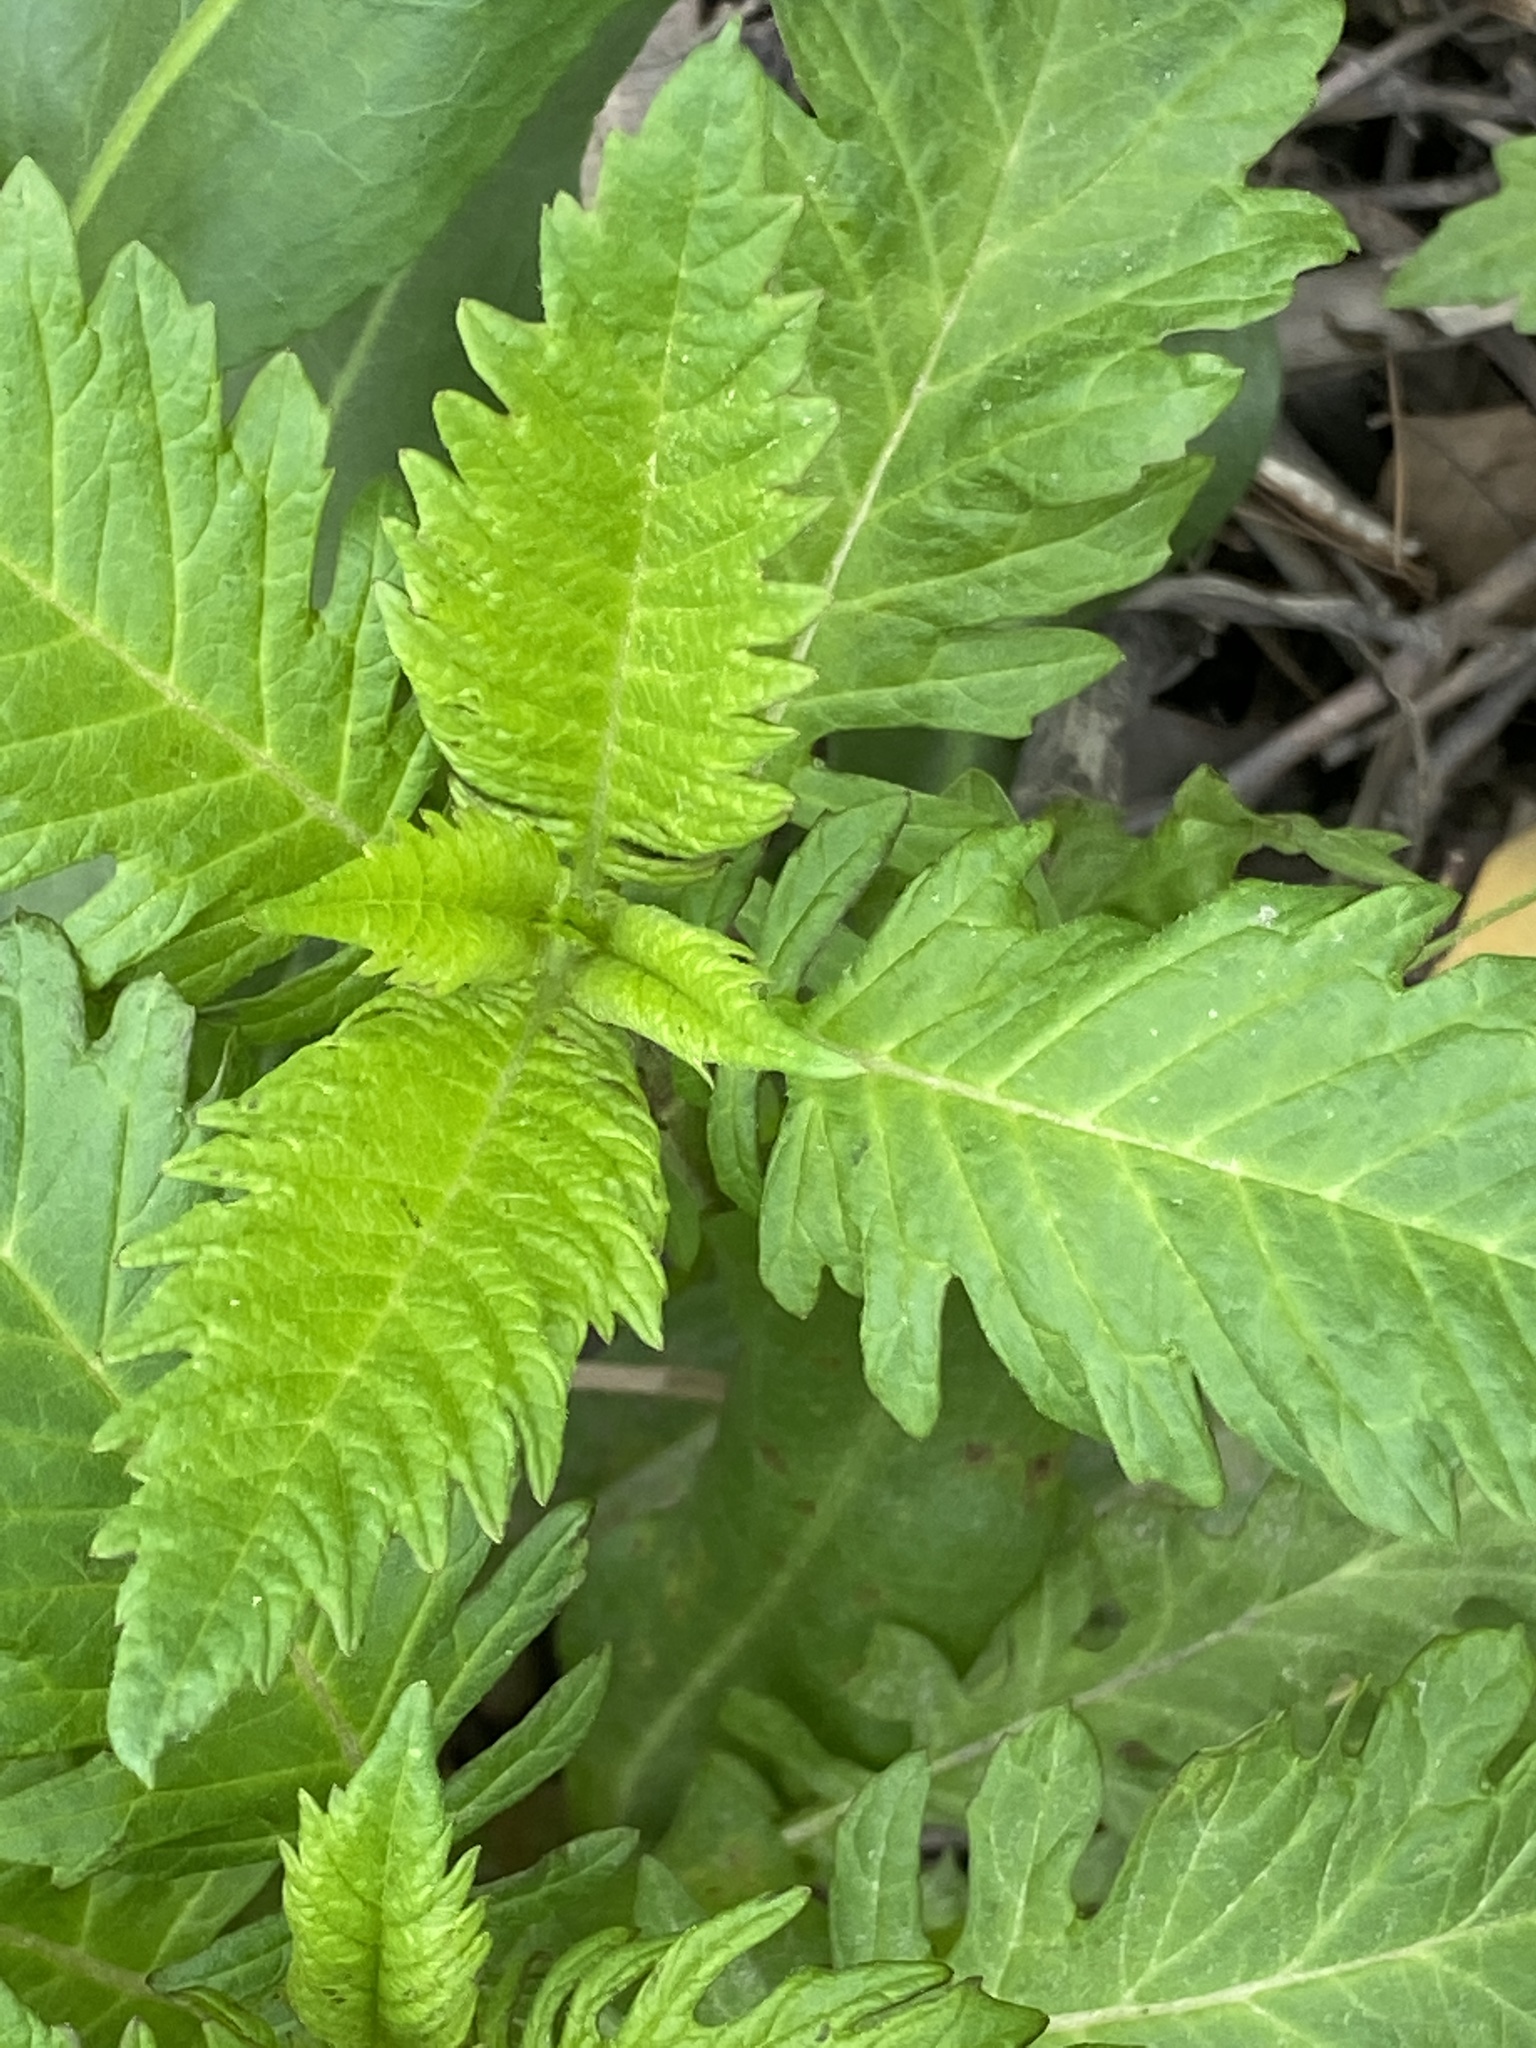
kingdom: Plantae
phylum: Tracheophyta
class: Magnoliopsida
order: Lamiales
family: Lamiaceae
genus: Lycopus
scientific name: Lycopus europaeus
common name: European bugleweed
